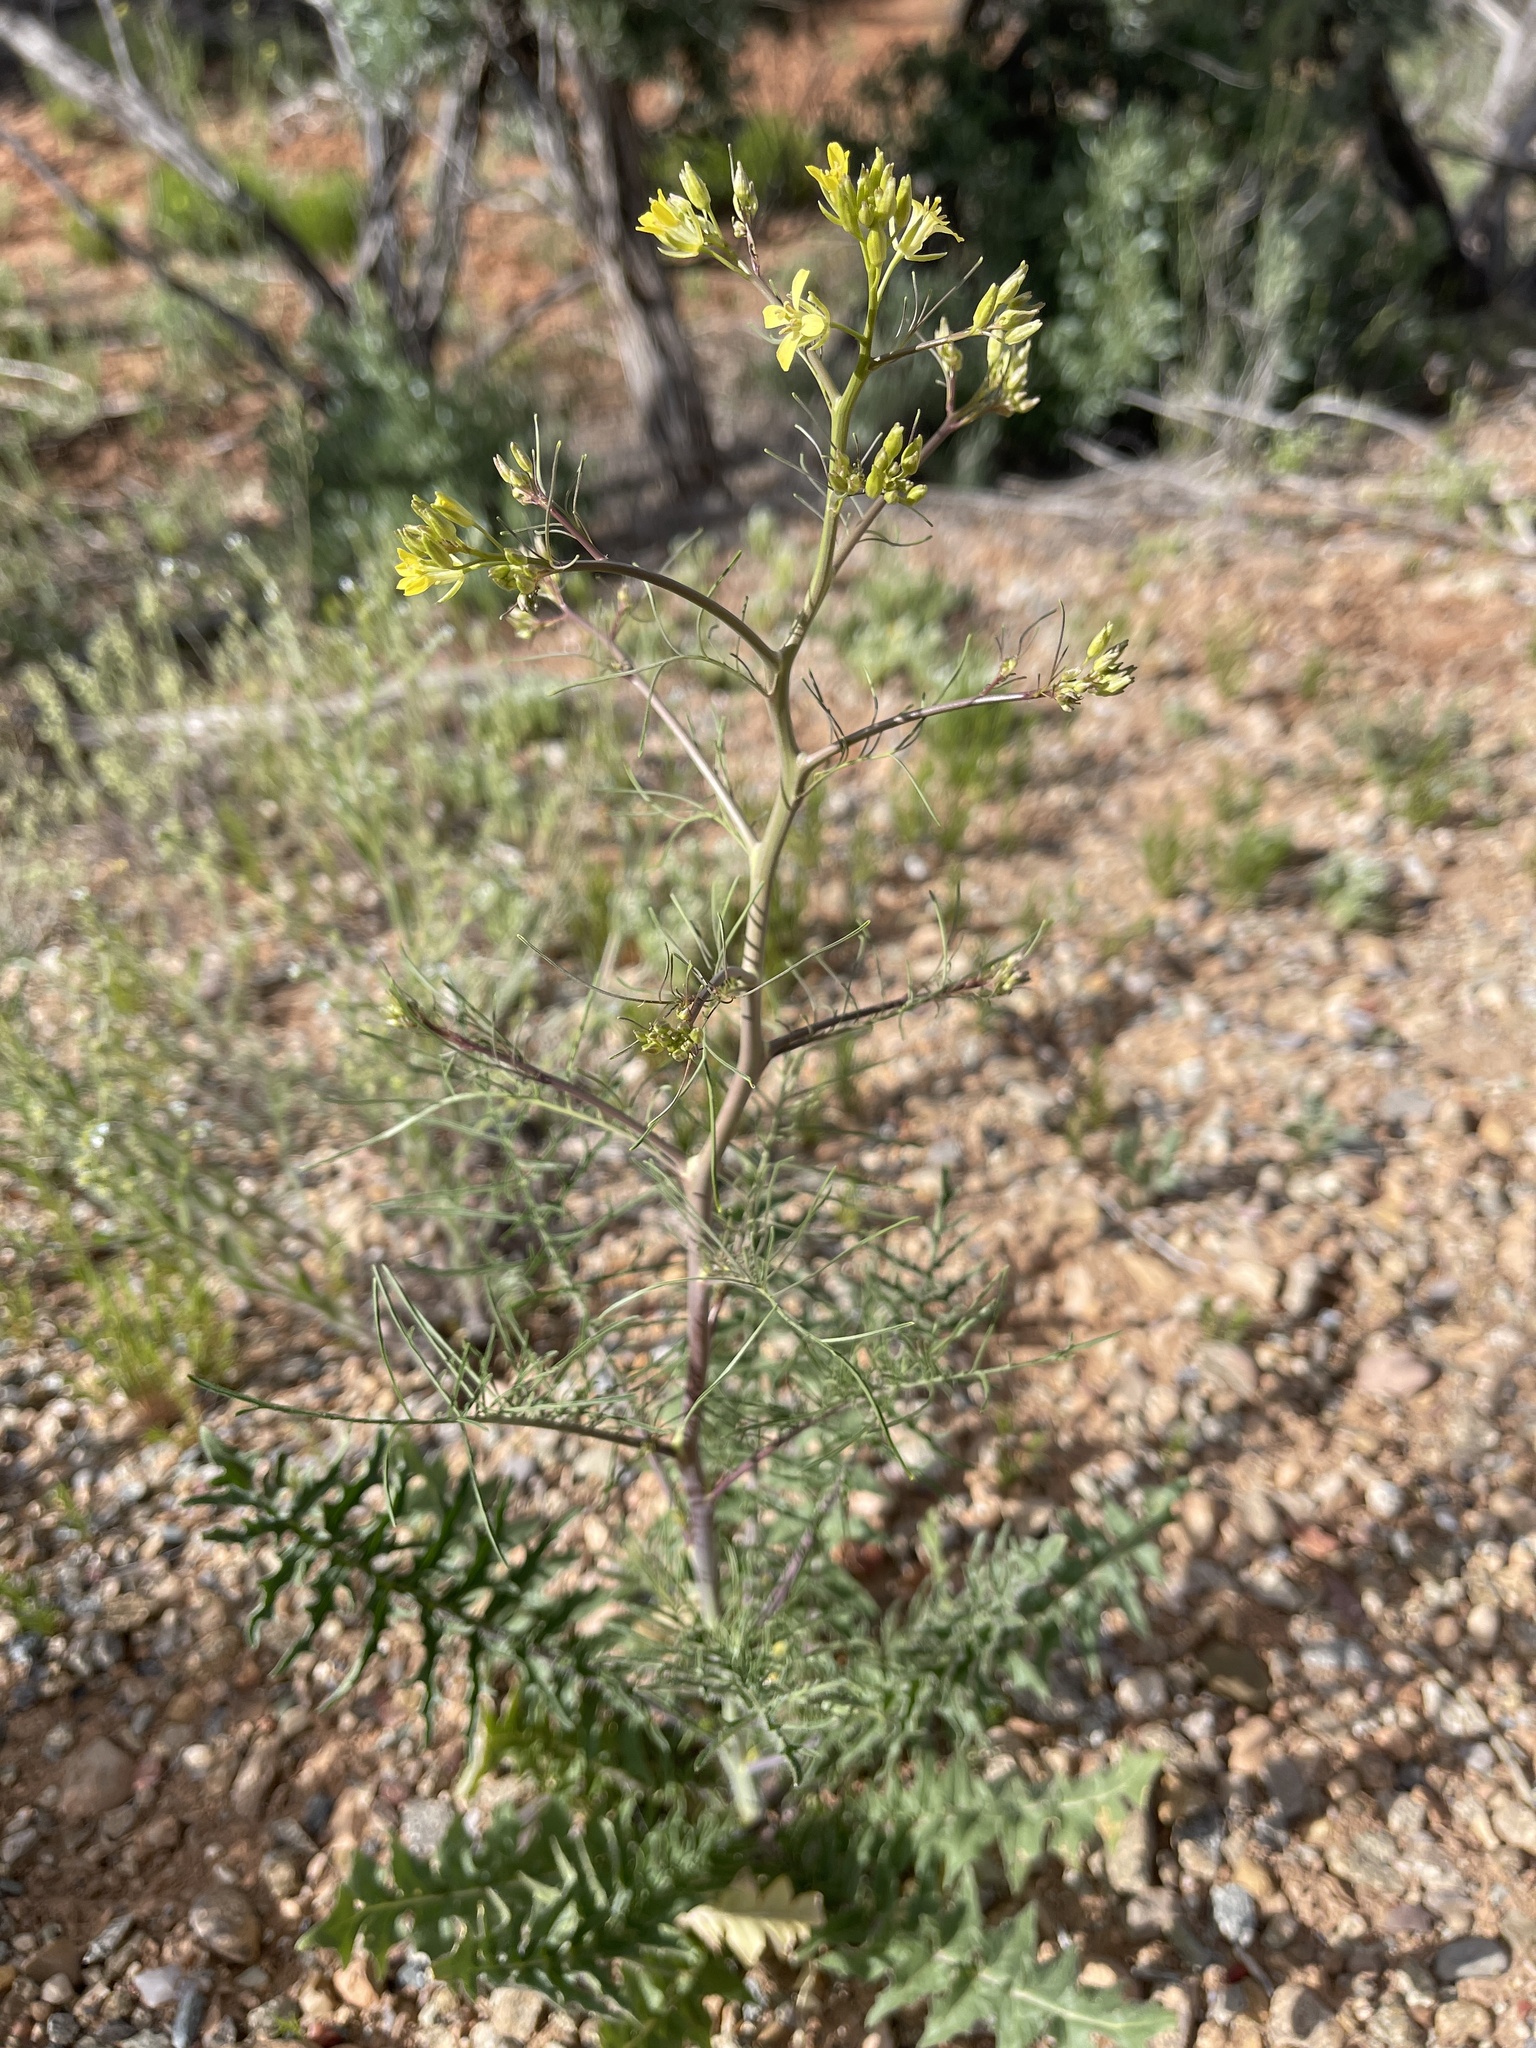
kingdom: Plantae
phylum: Tracheophyta
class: Magnoliopsida
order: Brassicales
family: Brassicaceae
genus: Sisymbrium
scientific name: Sisymbrium altissimum
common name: Tall rocket
